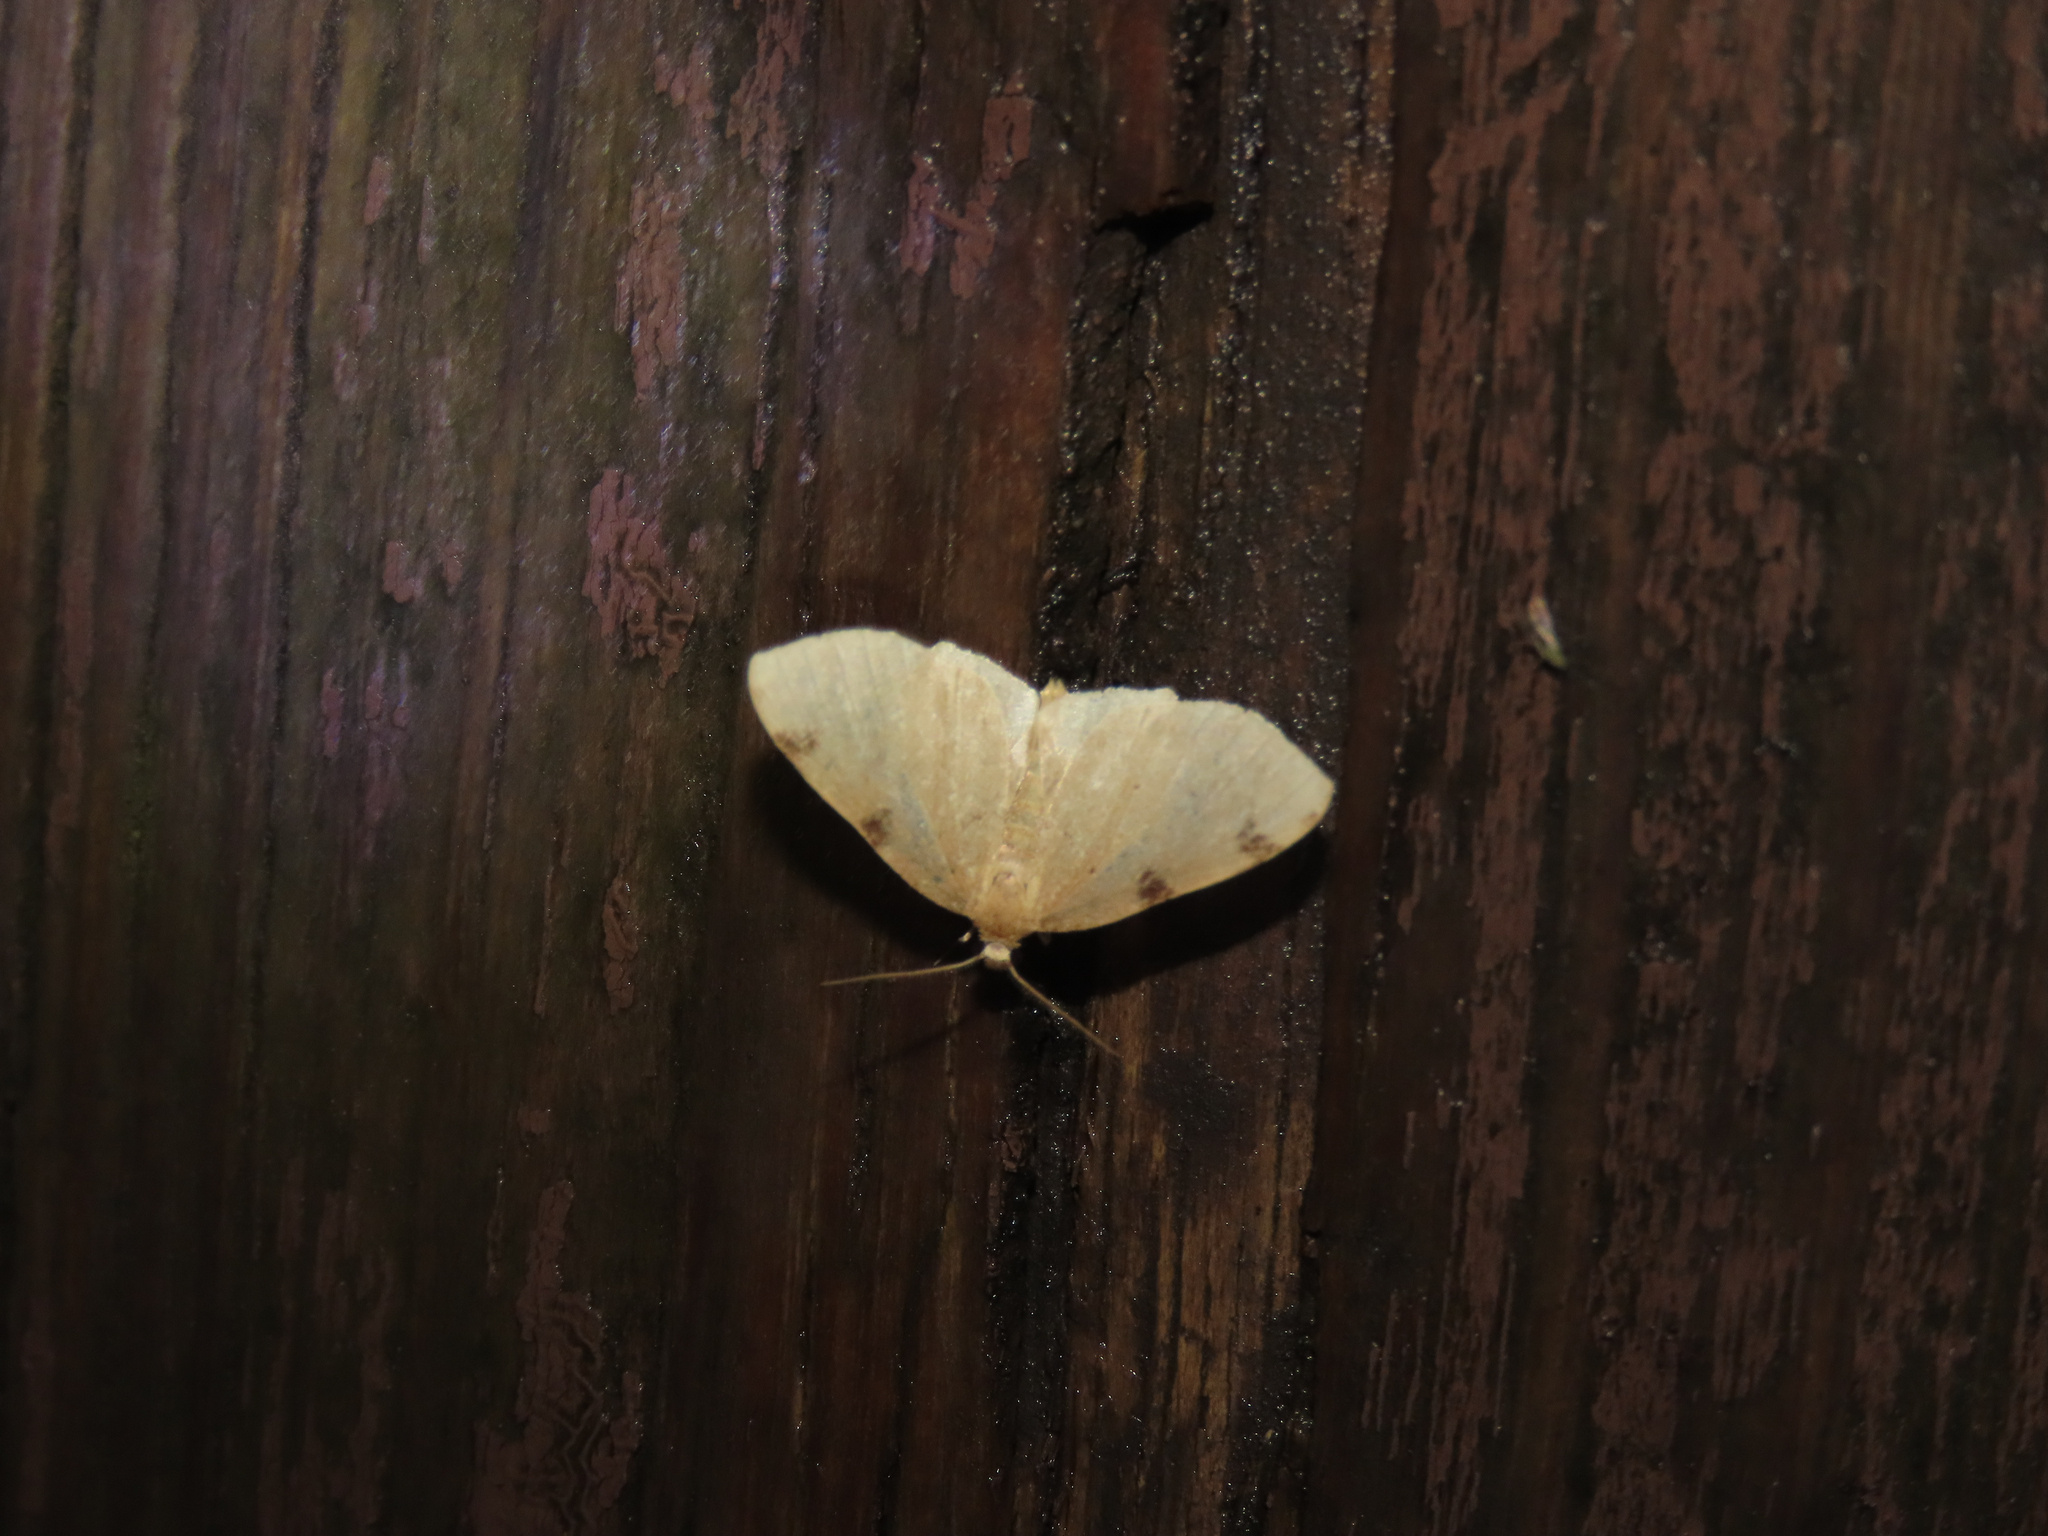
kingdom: Animalia
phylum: Arthropoda
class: Insecta
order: Lepidoptera
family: Geometridae
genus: Heterophleps
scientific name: Heterophleps triguttaria
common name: Three-spotted fillip
